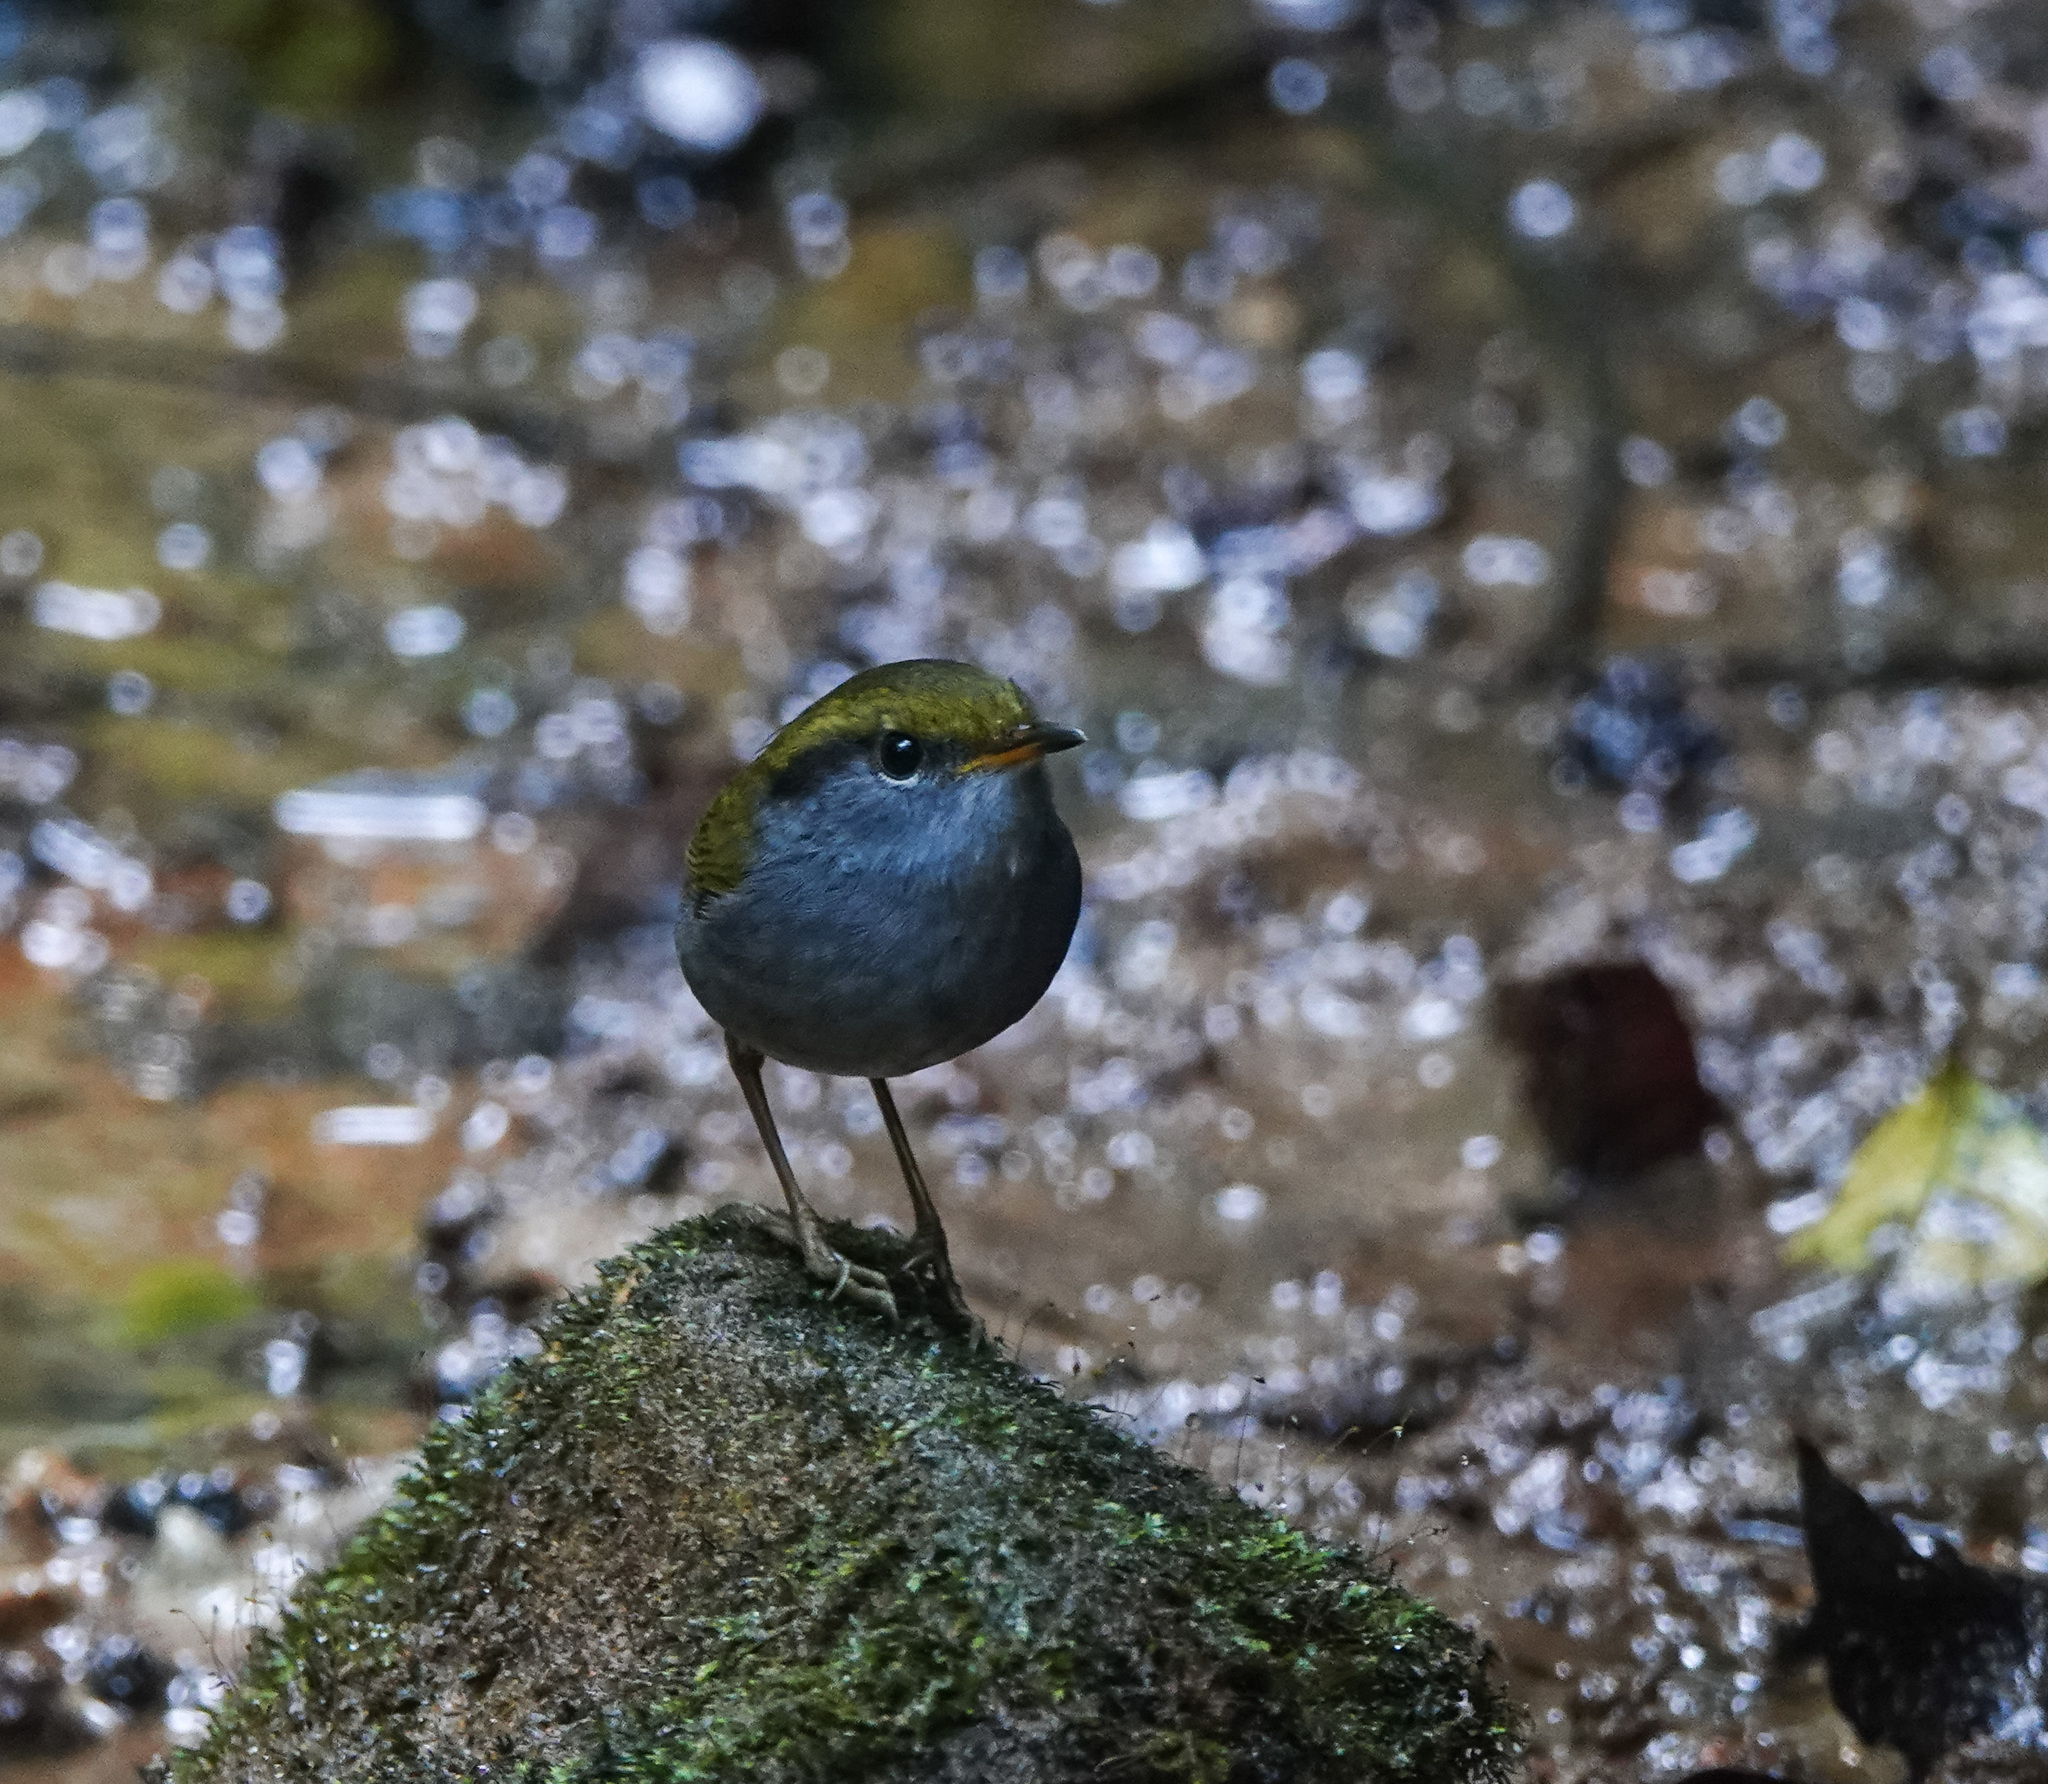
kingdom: Animalia
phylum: Chordata
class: Aves
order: Passeriformes
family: Cettiidae
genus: Tesia
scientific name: Tesia cyaniventer
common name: Grey-bellied tesia
